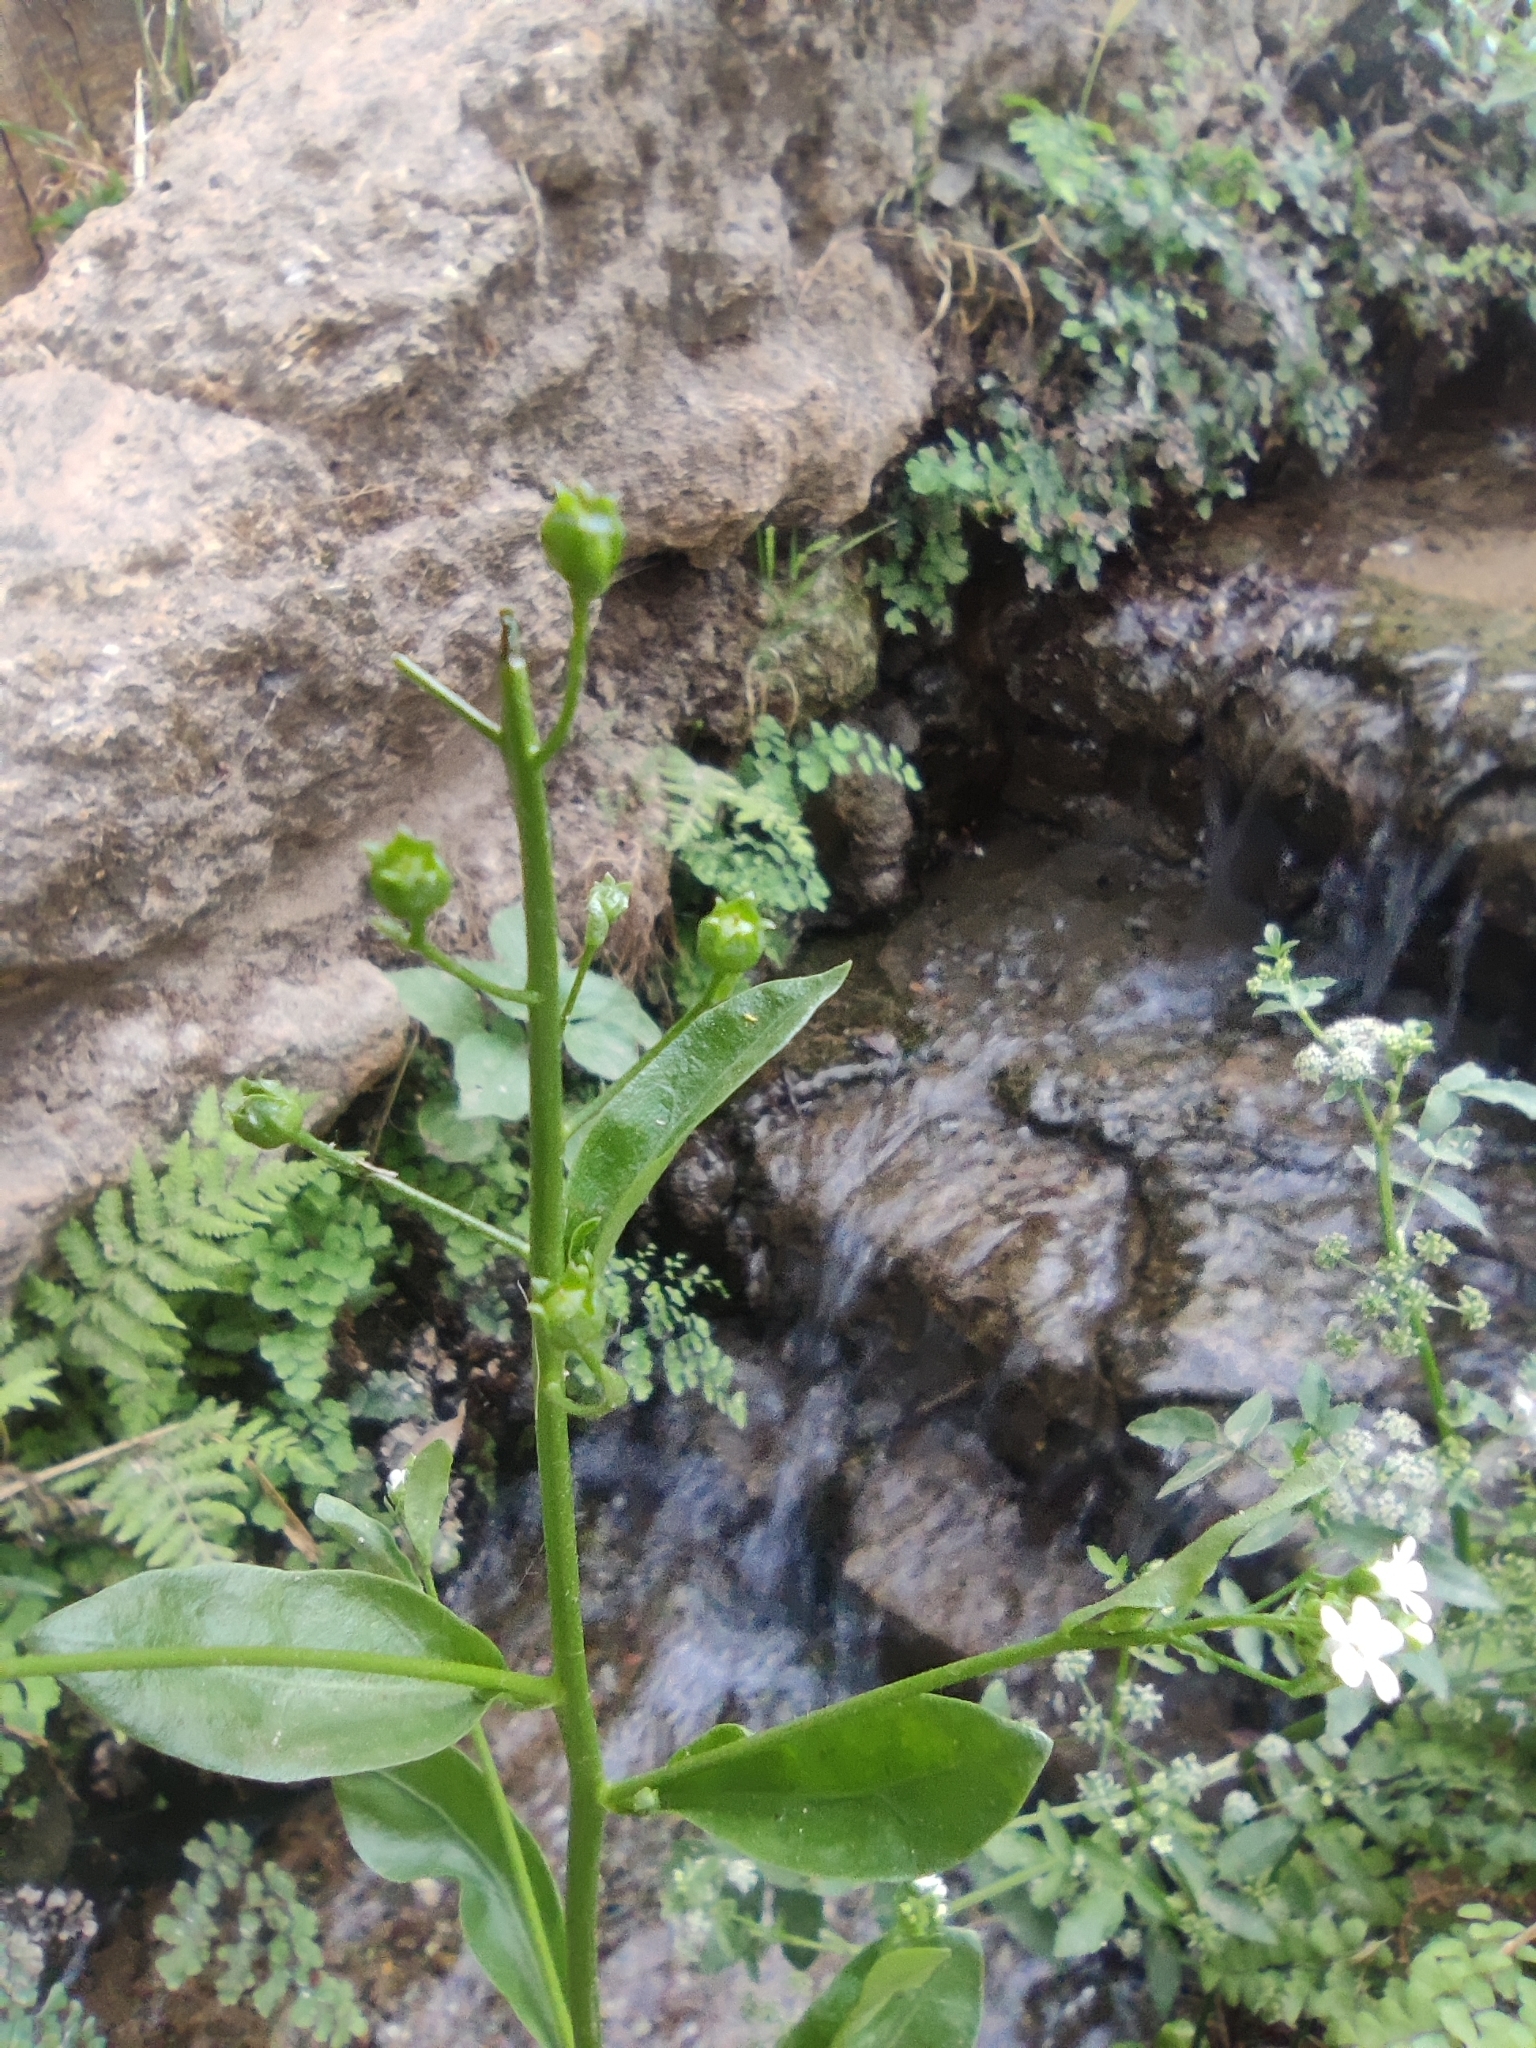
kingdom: Plantae
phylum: Tracheophyta
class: Magnoliopsida
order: Ericales
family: Primulaceae
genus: Samolus
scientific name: Samolus valerandi
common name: Brookweed
